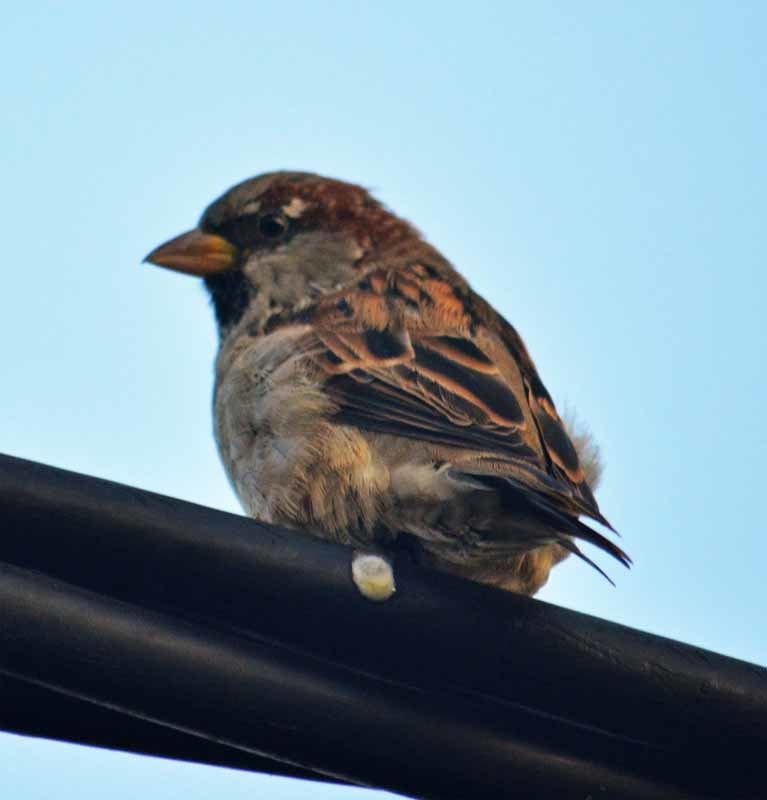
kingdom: Animalia
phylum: Chordata
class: Aves
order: Passeriformes
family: Passeridae
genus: Passer
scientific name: Passer domesticus
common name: House sparrow
